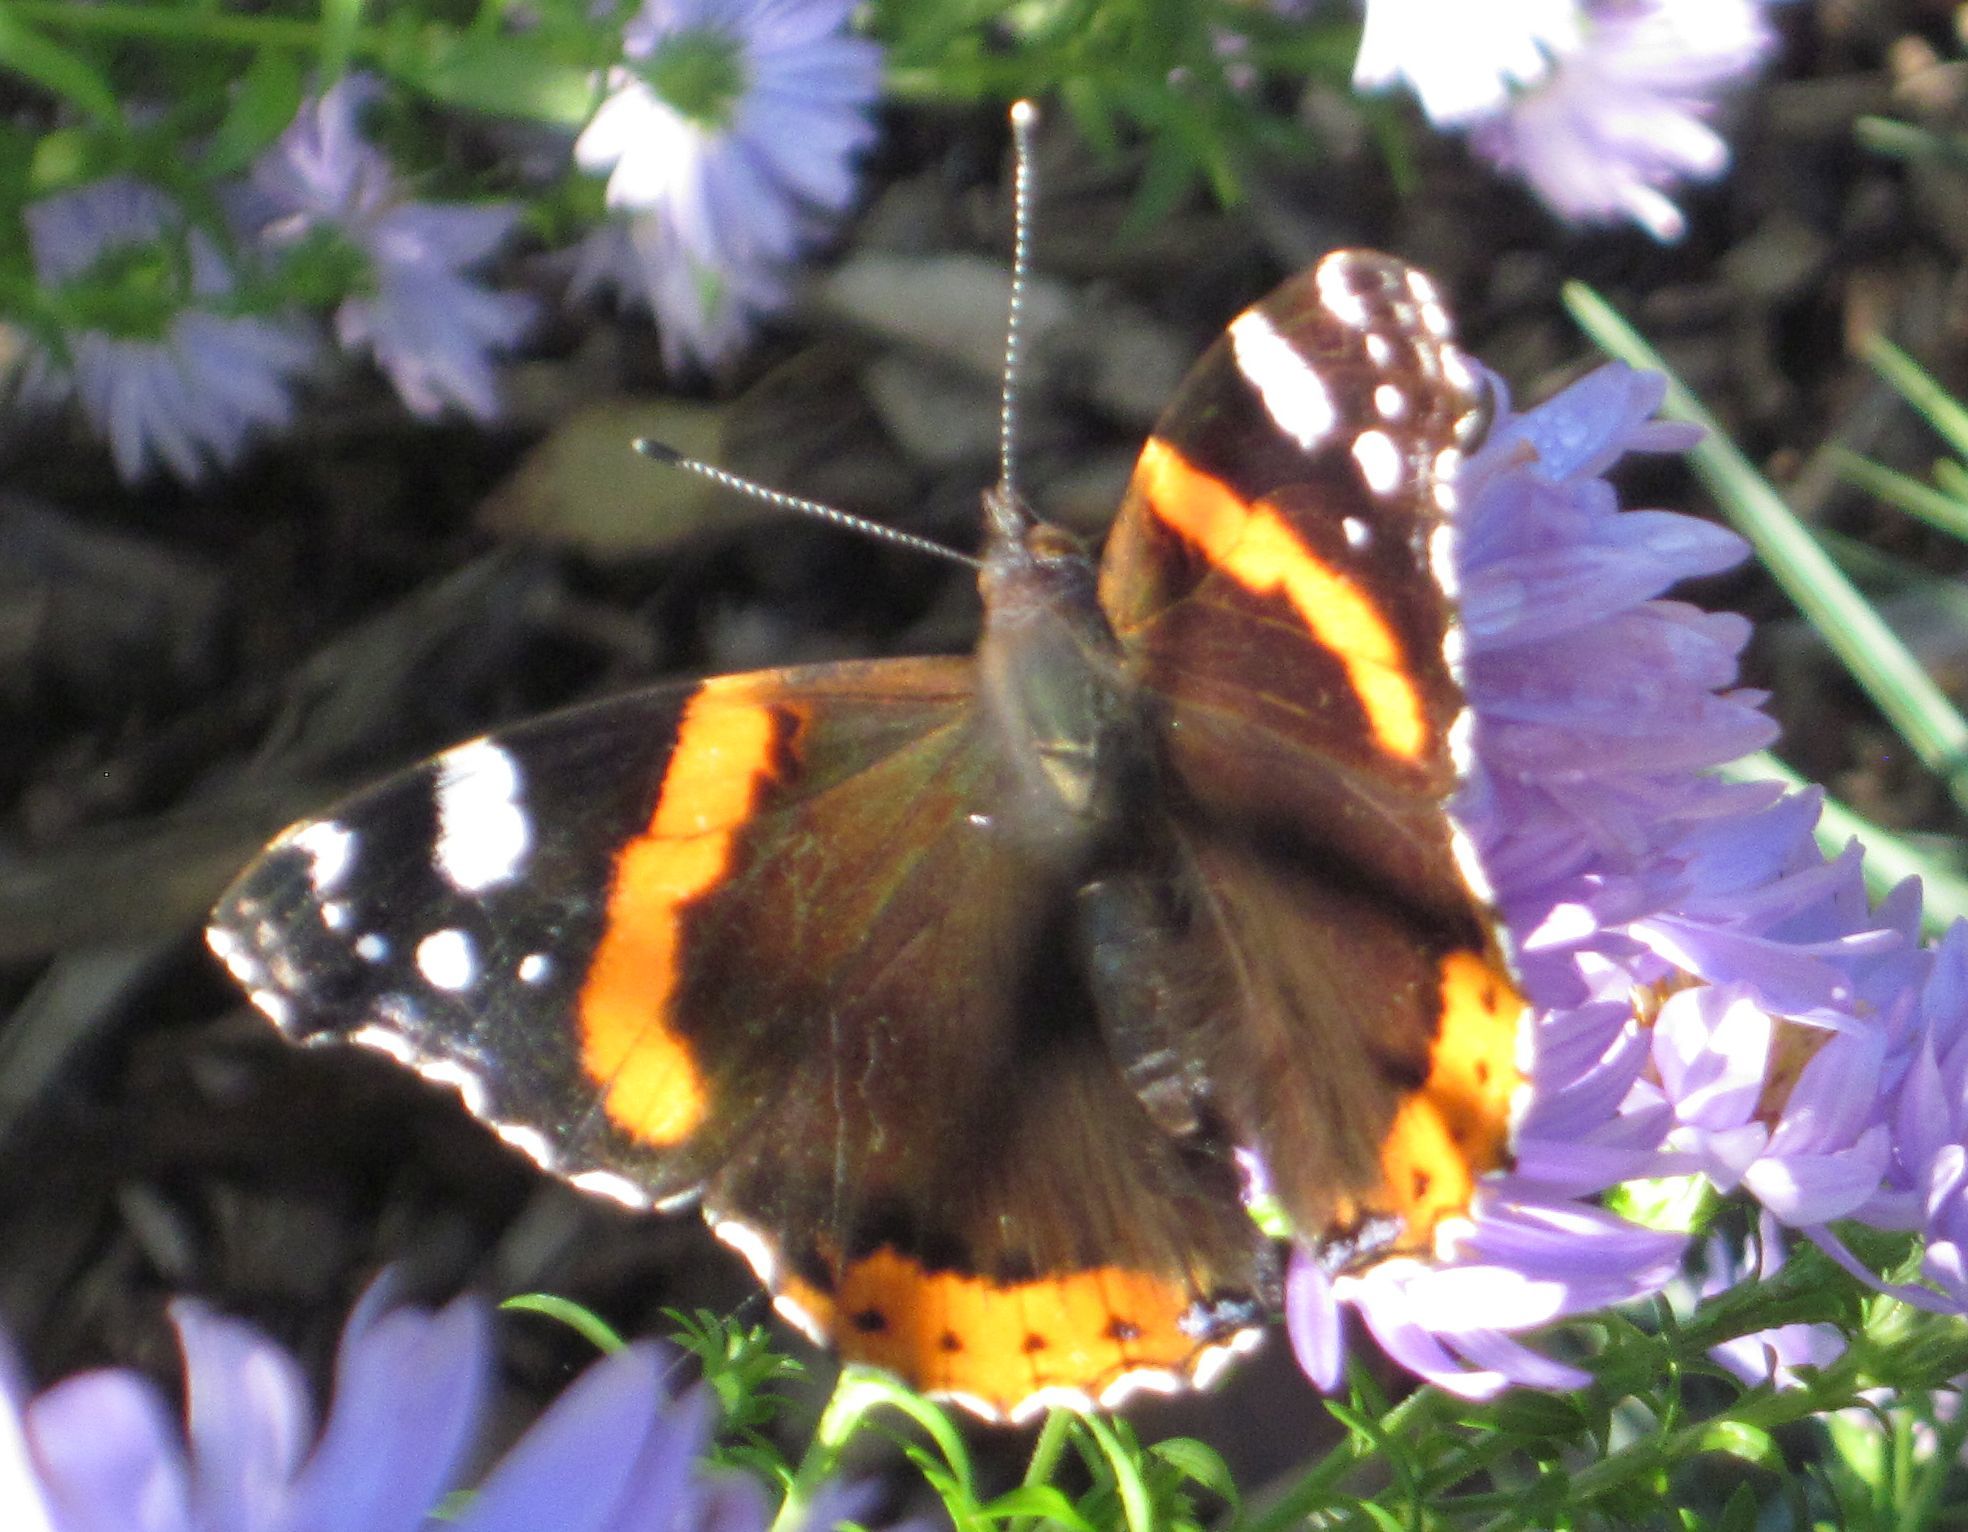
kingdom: Animalia
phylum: Arthropoda
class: Insecta
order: Lepidoptera
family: Nymphalidae
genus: Vanessa
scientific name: Vanessa atalanta
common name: Red admiral
